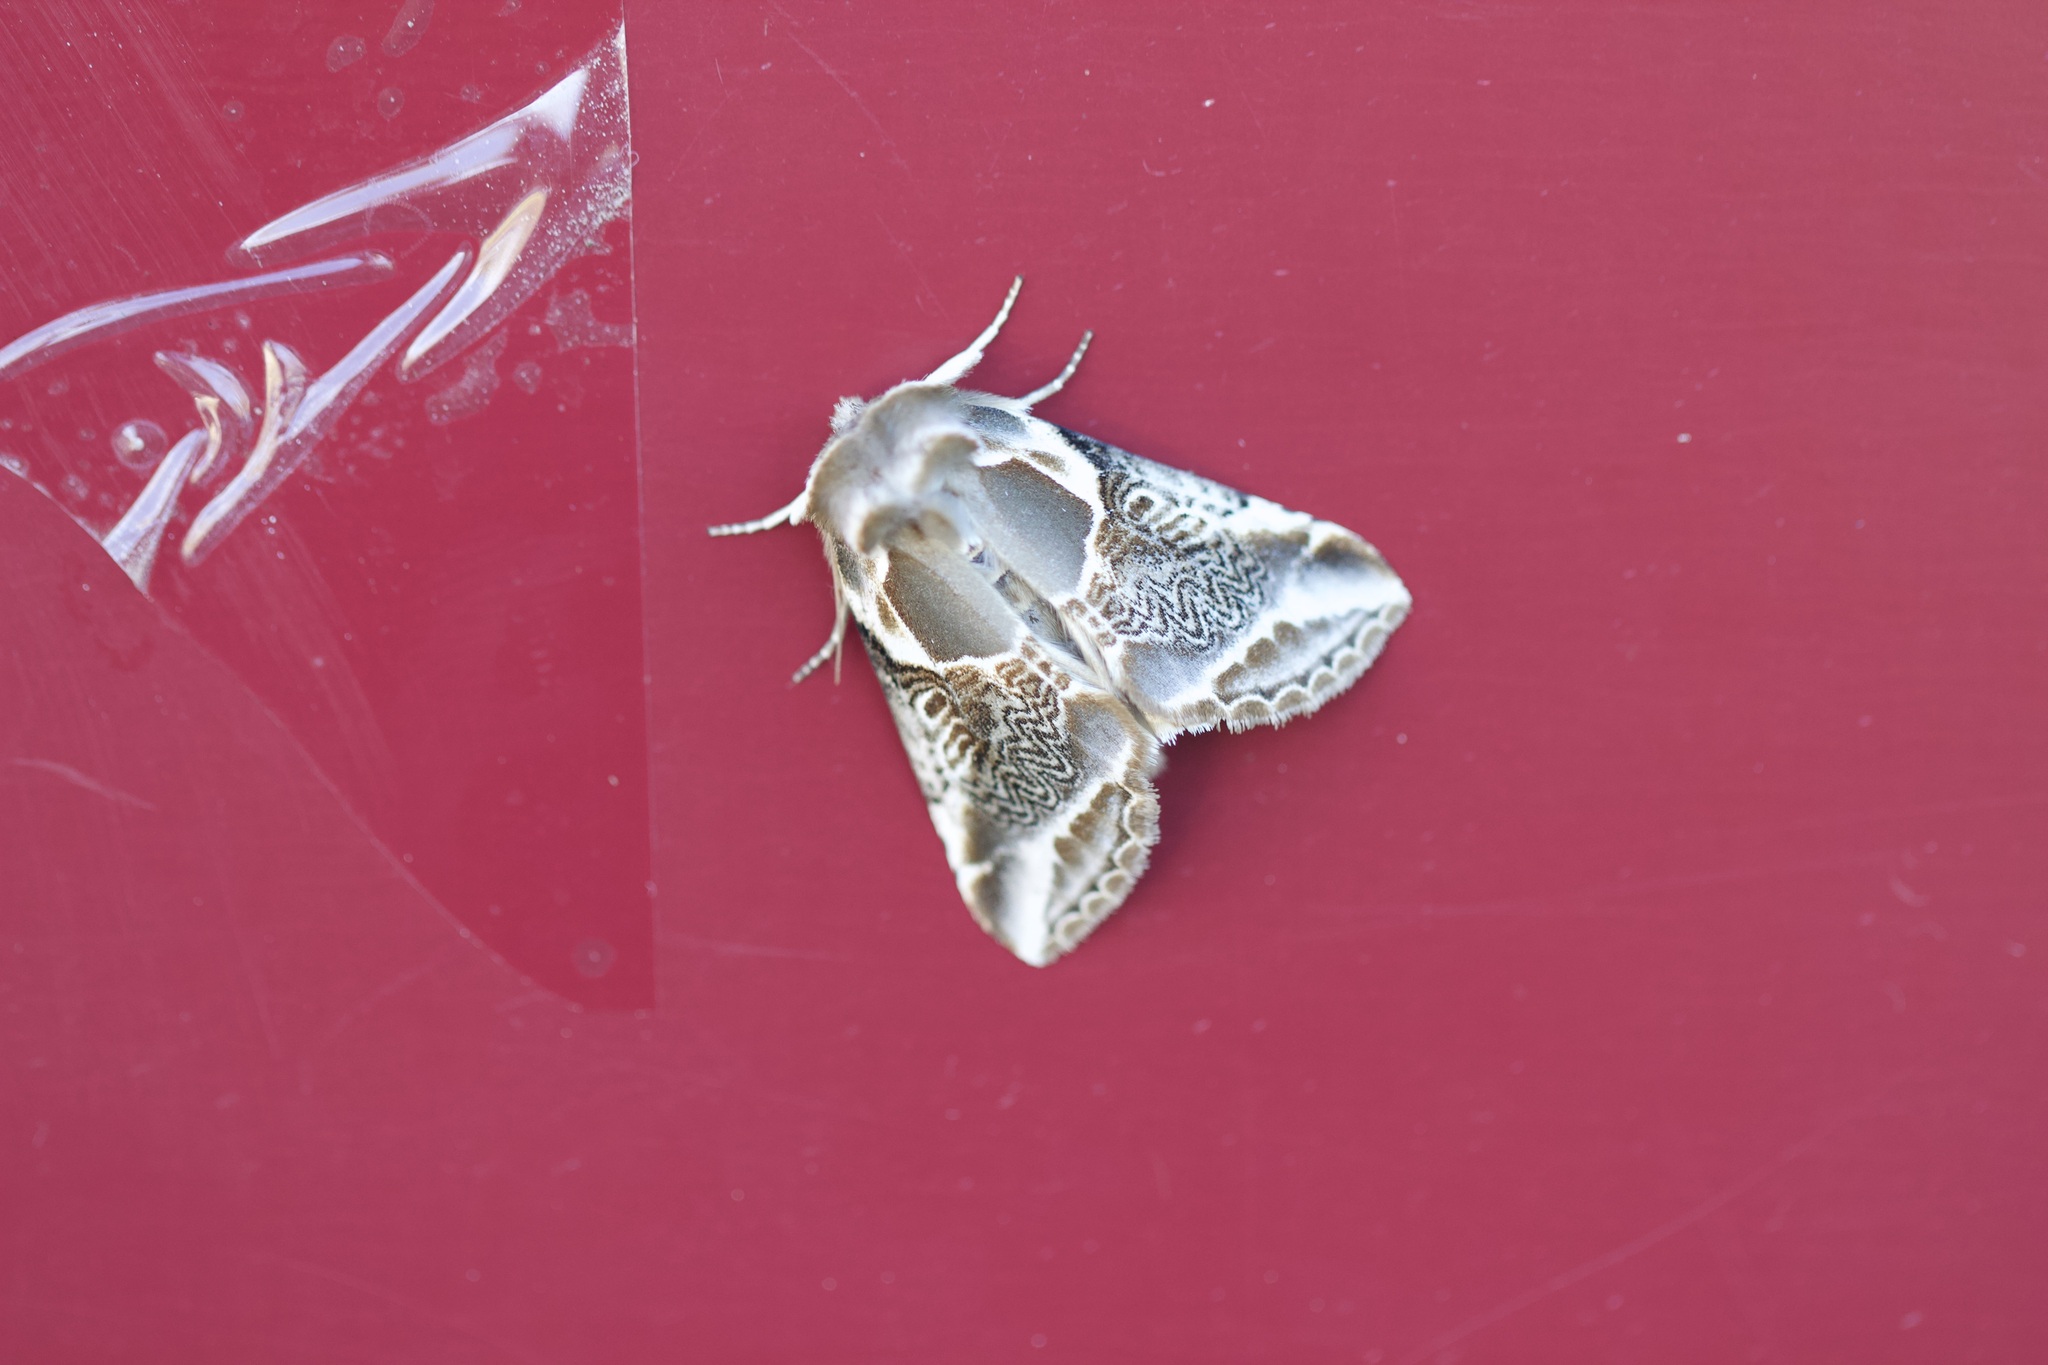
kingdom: Animalia
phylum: Arthropoda
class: Insecta
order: Lepidoptera
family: Drepanidae
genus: Habrosyne
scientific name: Habrosyne scripta
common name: Lettered habrosyne moth
